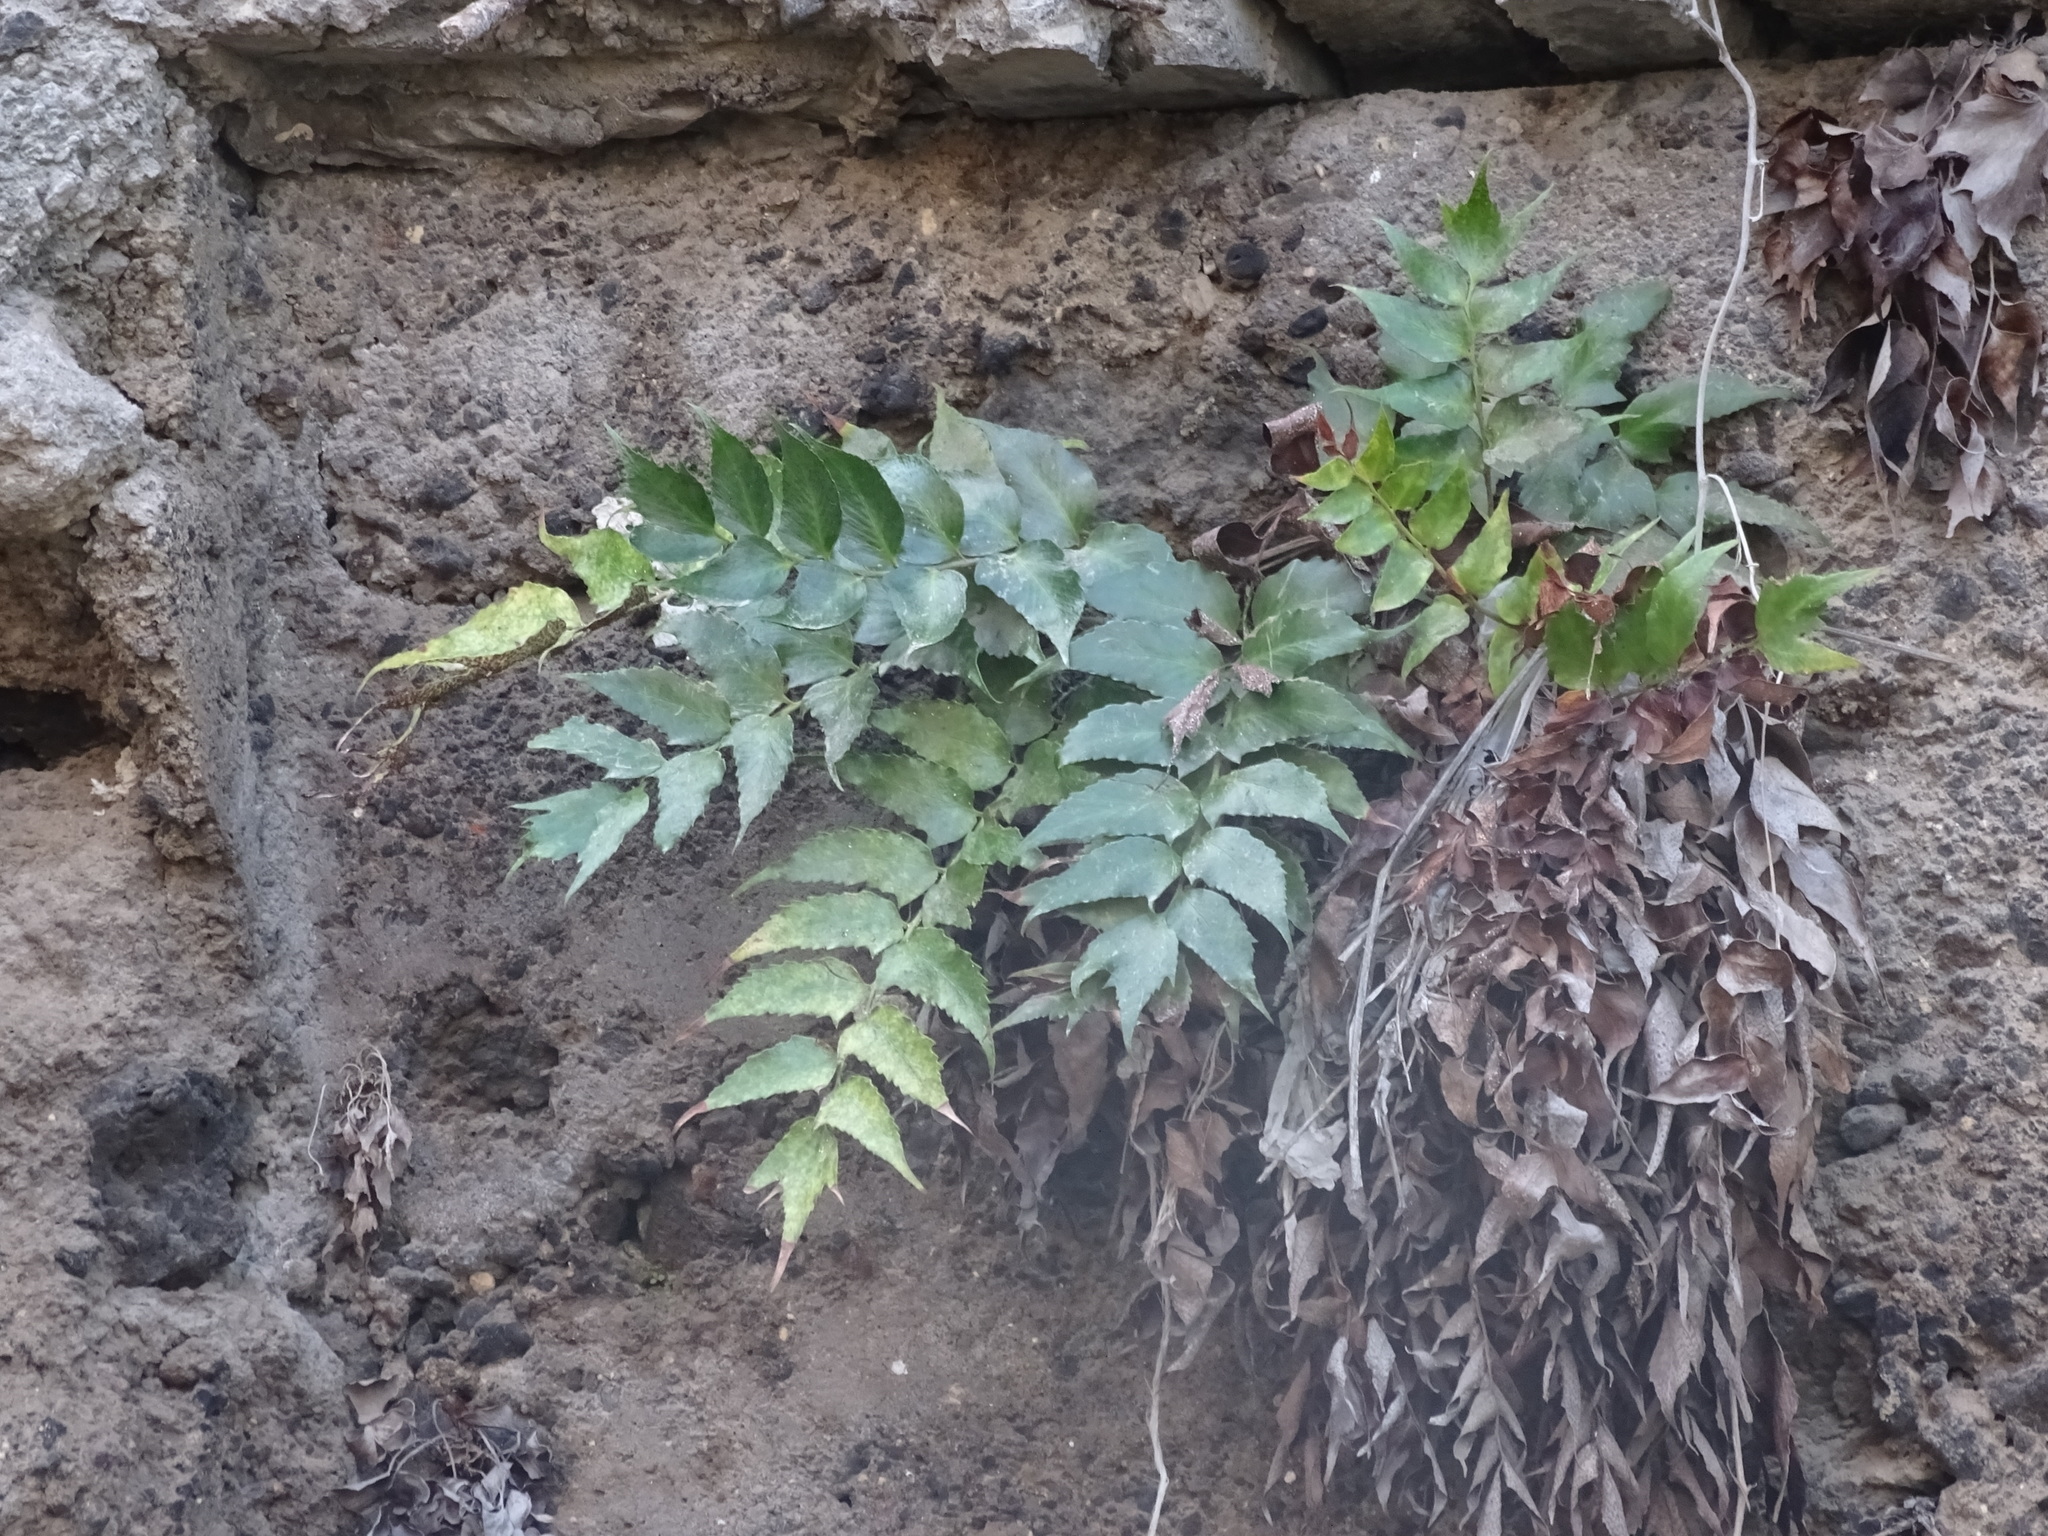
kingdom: Plantae
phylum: Tracheophyta
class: Polypodiopsida
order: Polypodiales
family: Dryopteridaceae
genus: Cyrtomium
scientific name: Cyrtomium falcatum
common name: House holly-fern
